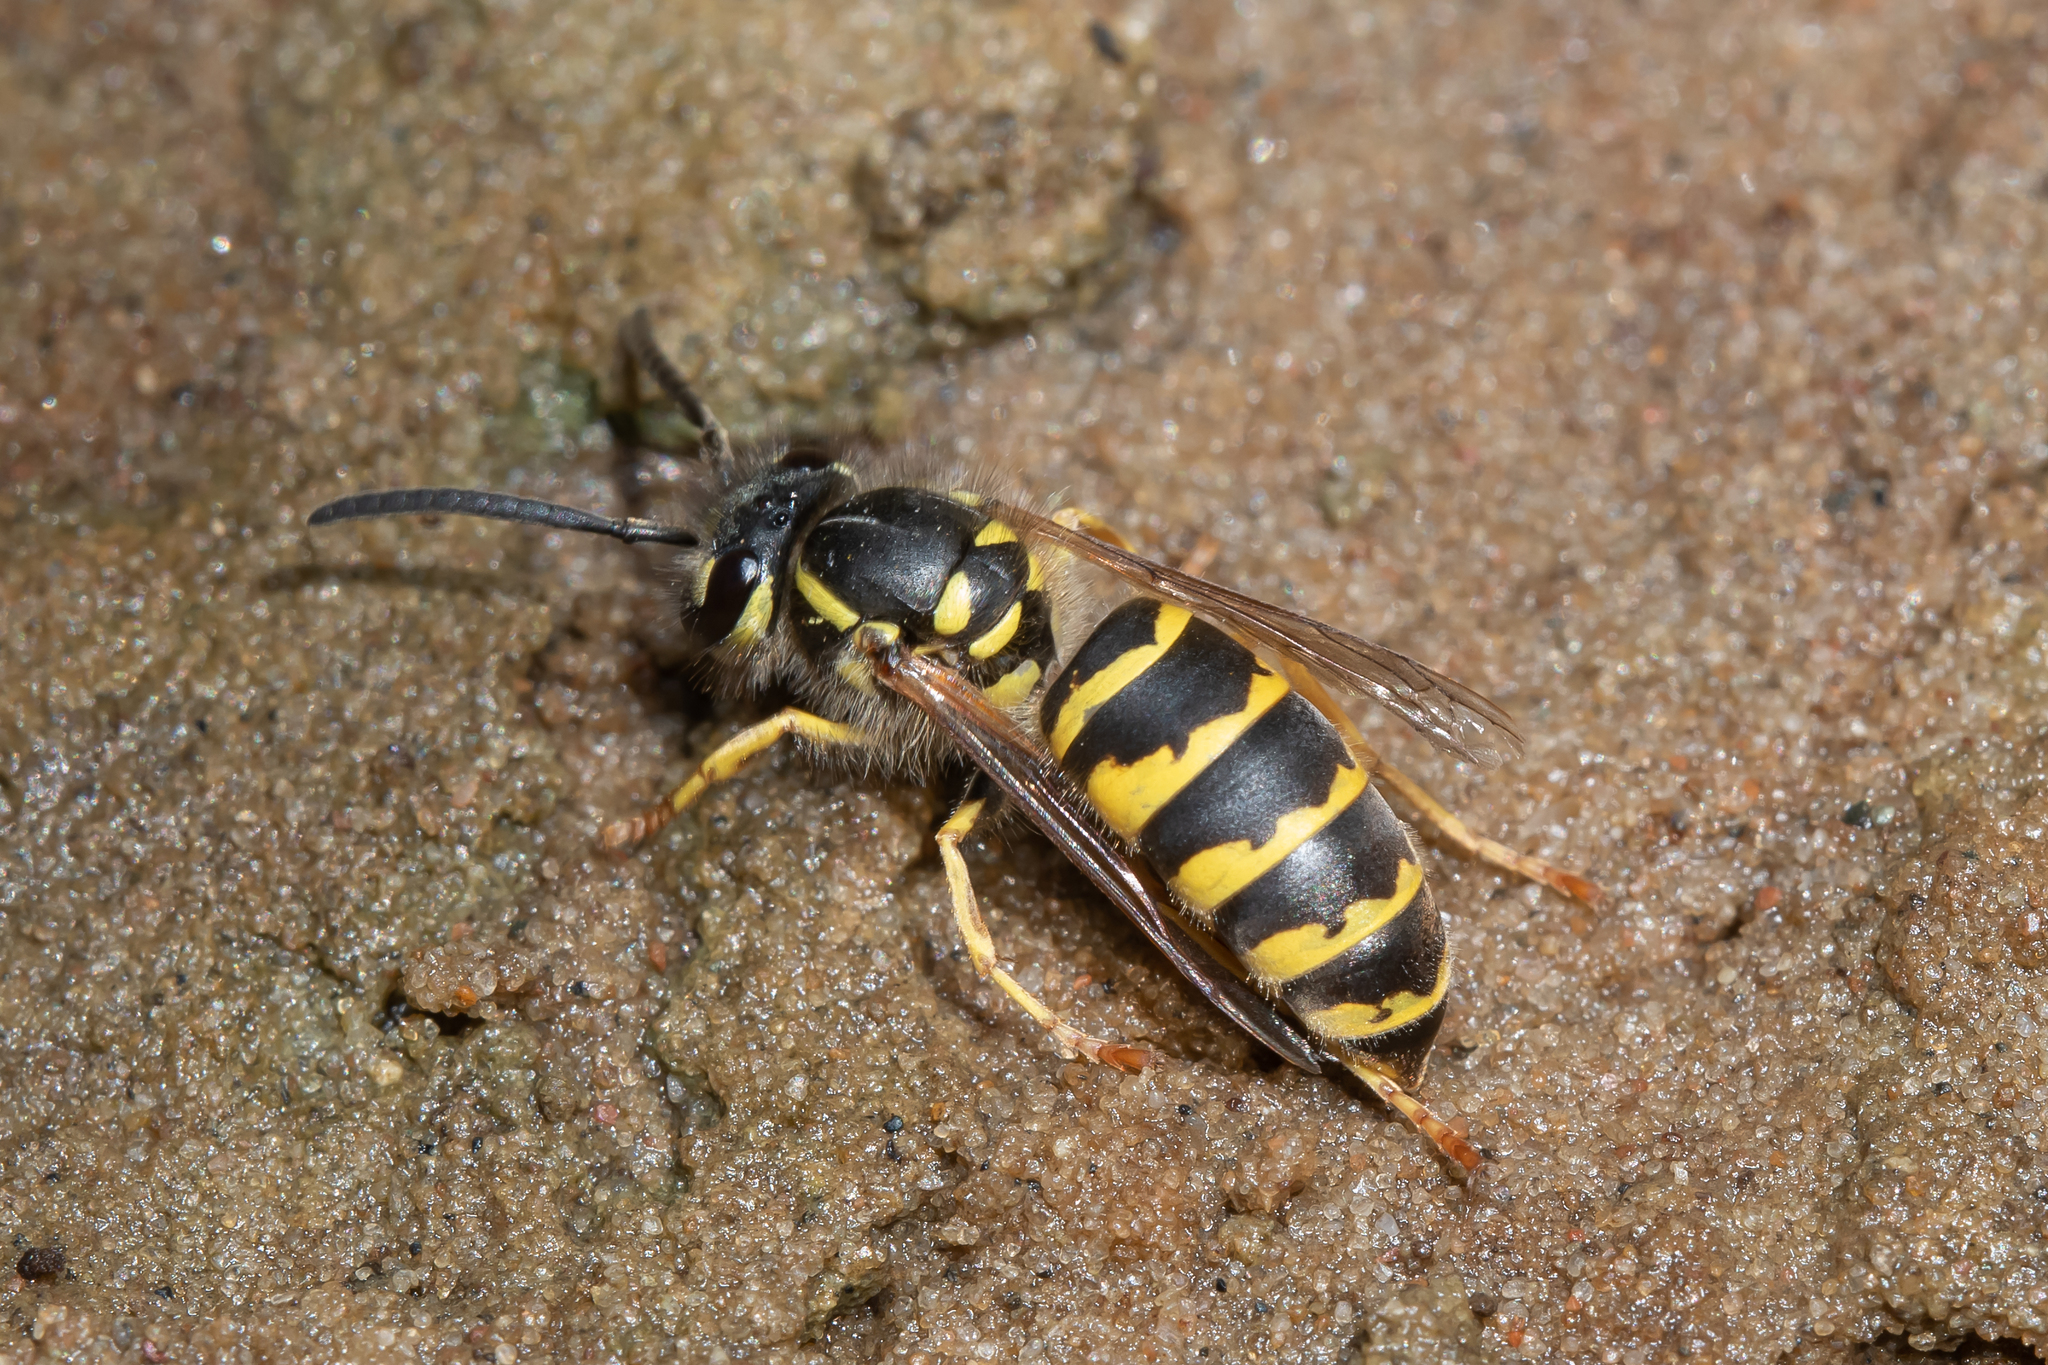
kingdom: Animalia
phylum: Arthropoda
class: Insecta
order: Hymenoptera
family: Vespidae
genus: Vespula
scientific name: Vespula vulgaris
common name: Common wasp
